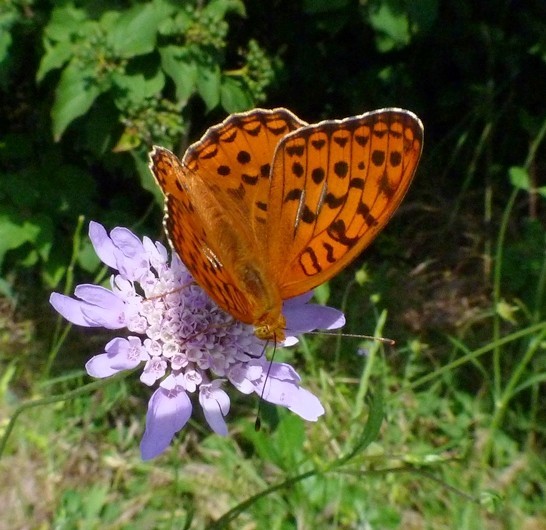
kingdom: Animalia
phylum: Arthropoda
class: Insecta
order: Lepidoptera
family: Nymphalidae
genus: Fabriciana
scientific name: Fabriciana adippe
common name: High brown fritillary
